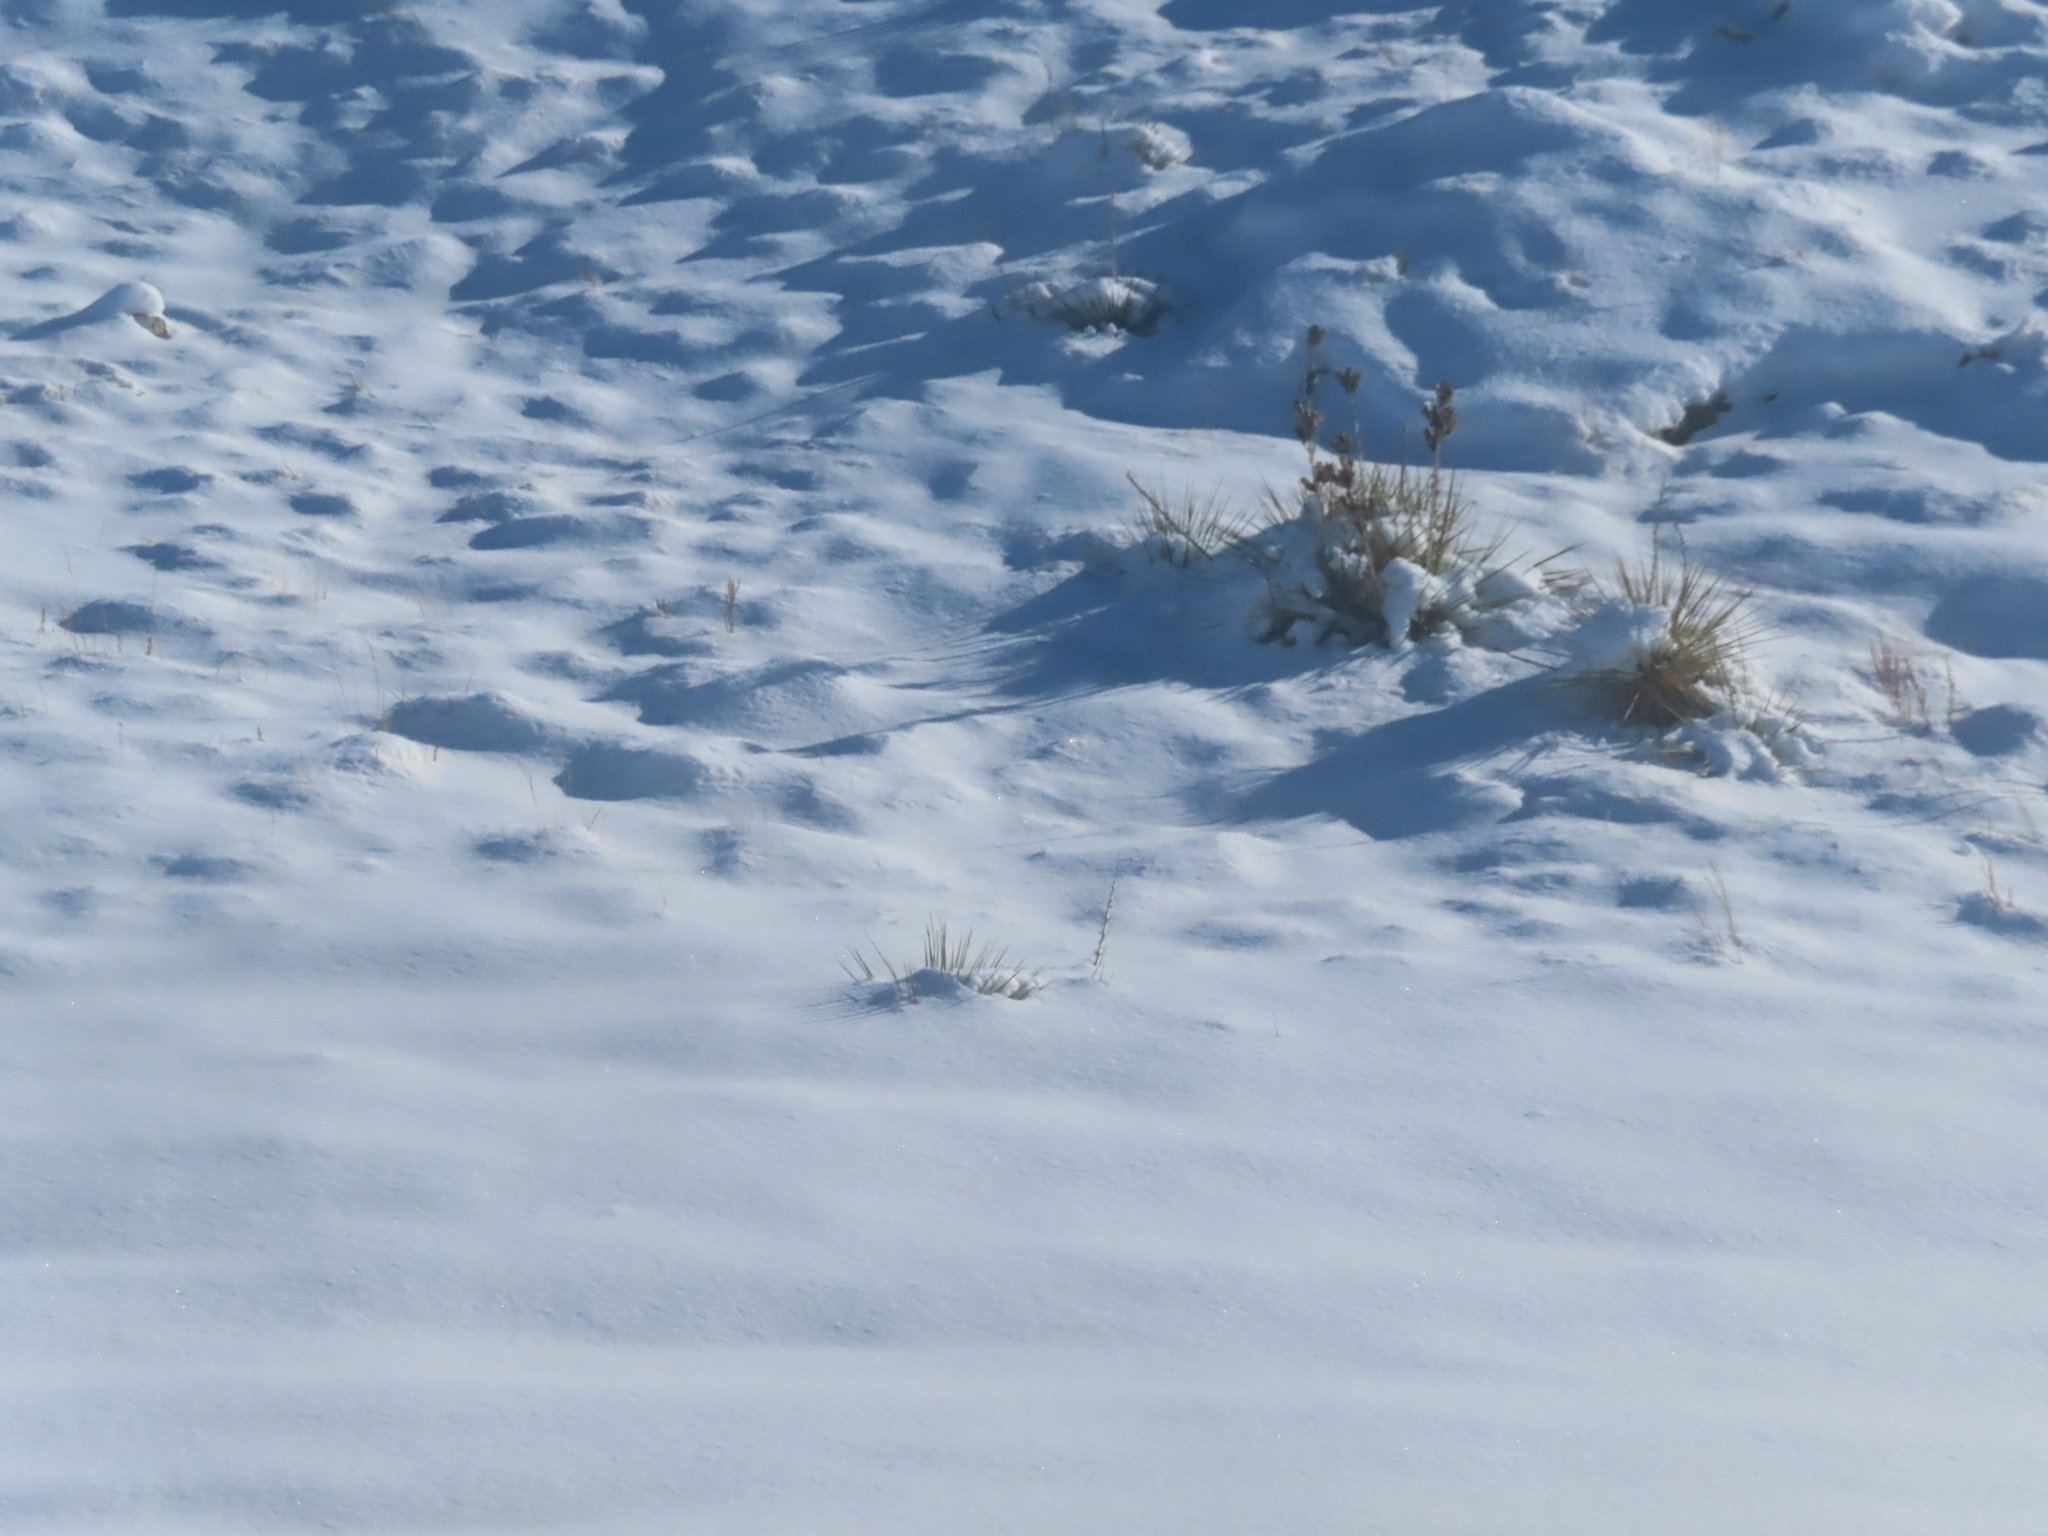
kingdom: Plantae
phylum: Tracheophyta
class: Liliopsida
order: Asparagales
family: Asparagaceae
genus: Yucca
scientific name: Yucca glauca
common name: Great plains yucca
